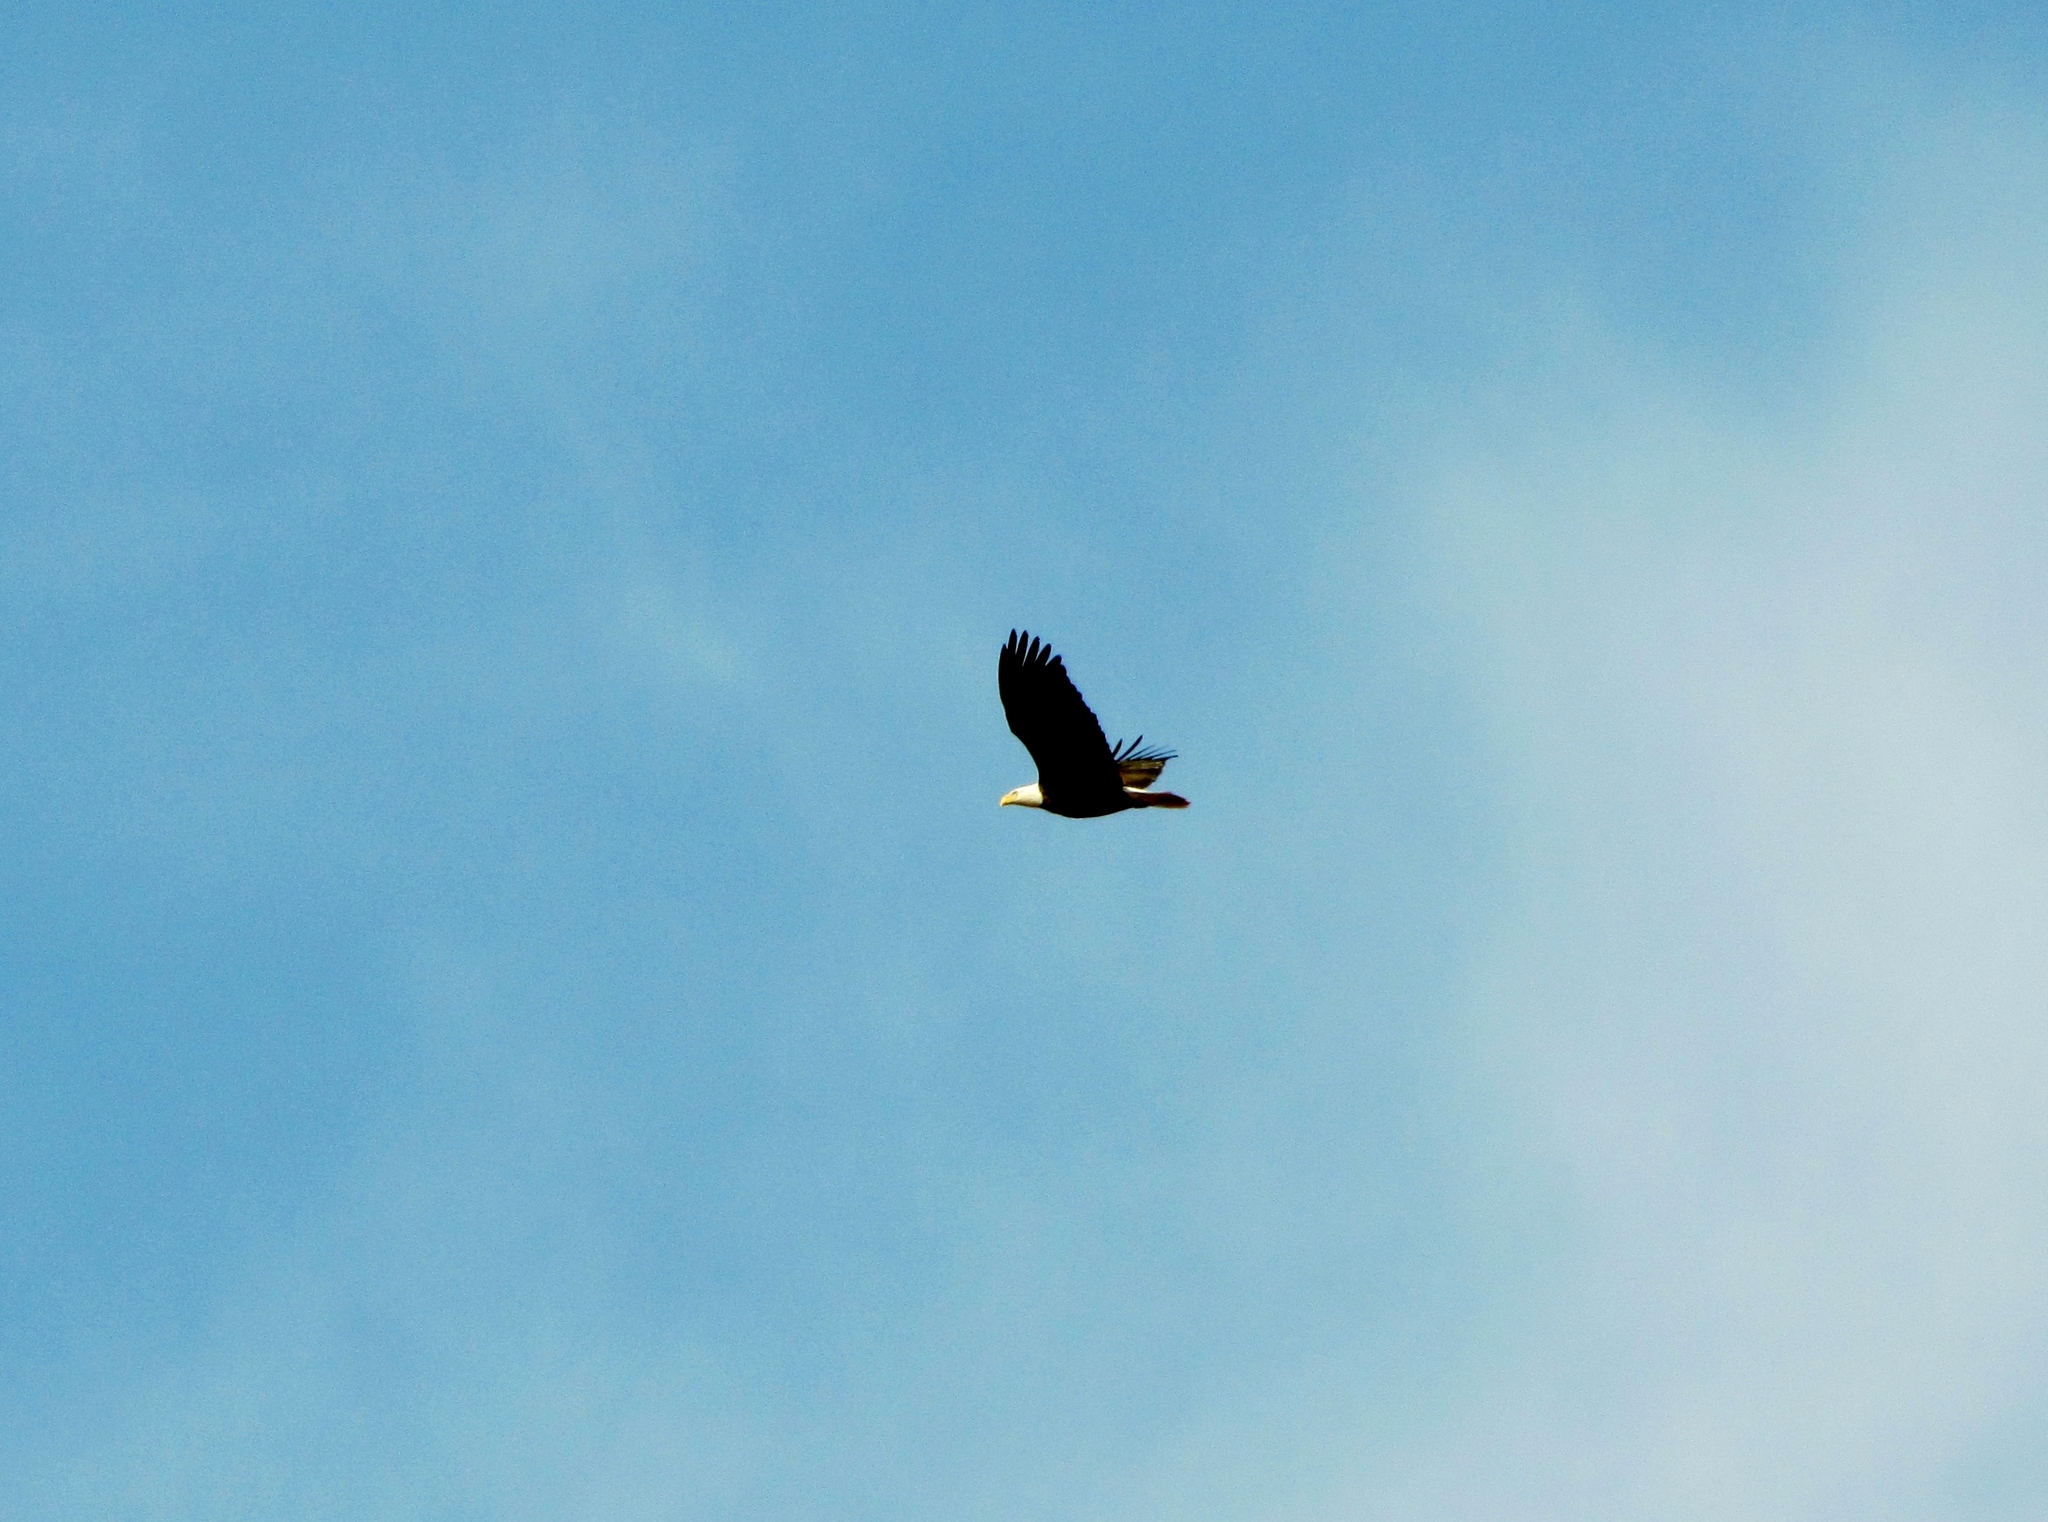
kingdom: Animalia
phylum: Chordata
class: Aves
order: Accipitriformes
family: Accipitridae
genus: Haliaeetus
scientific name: Haliaeetus leucocephalus
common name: Bald eagle
